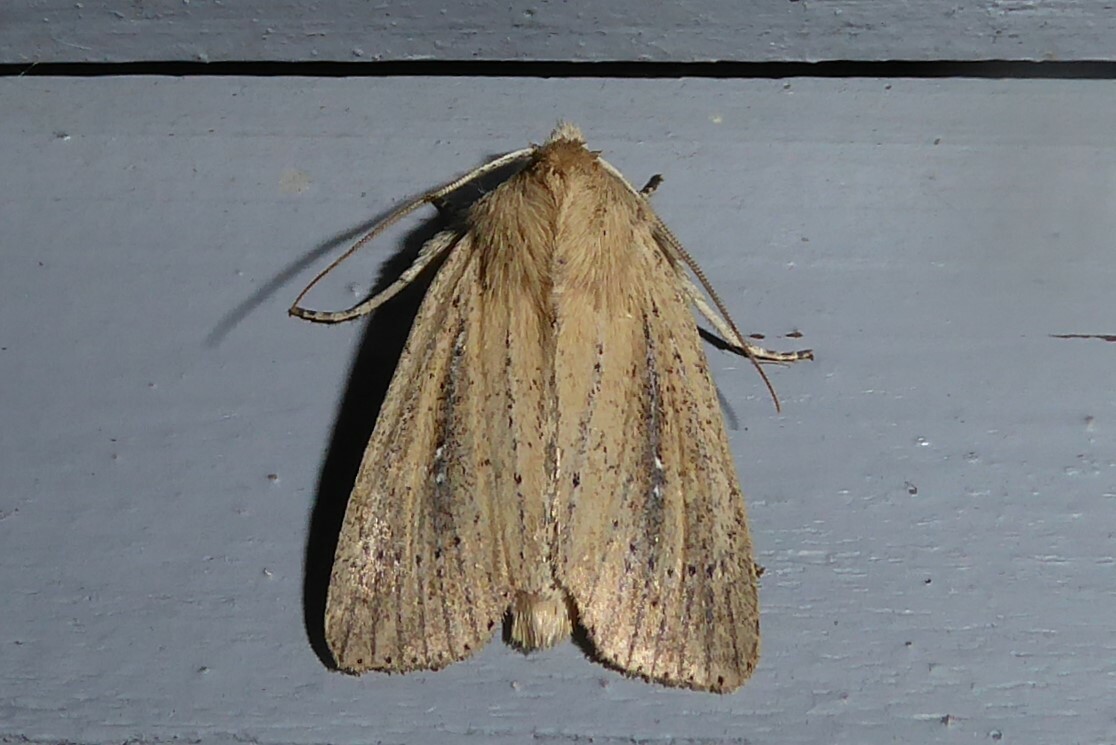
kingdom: Animalia
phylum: Arthropoda
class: Insecta
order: Lepidoptera
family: Noctuidae
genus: Ichneutica
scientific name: Ichneutica
